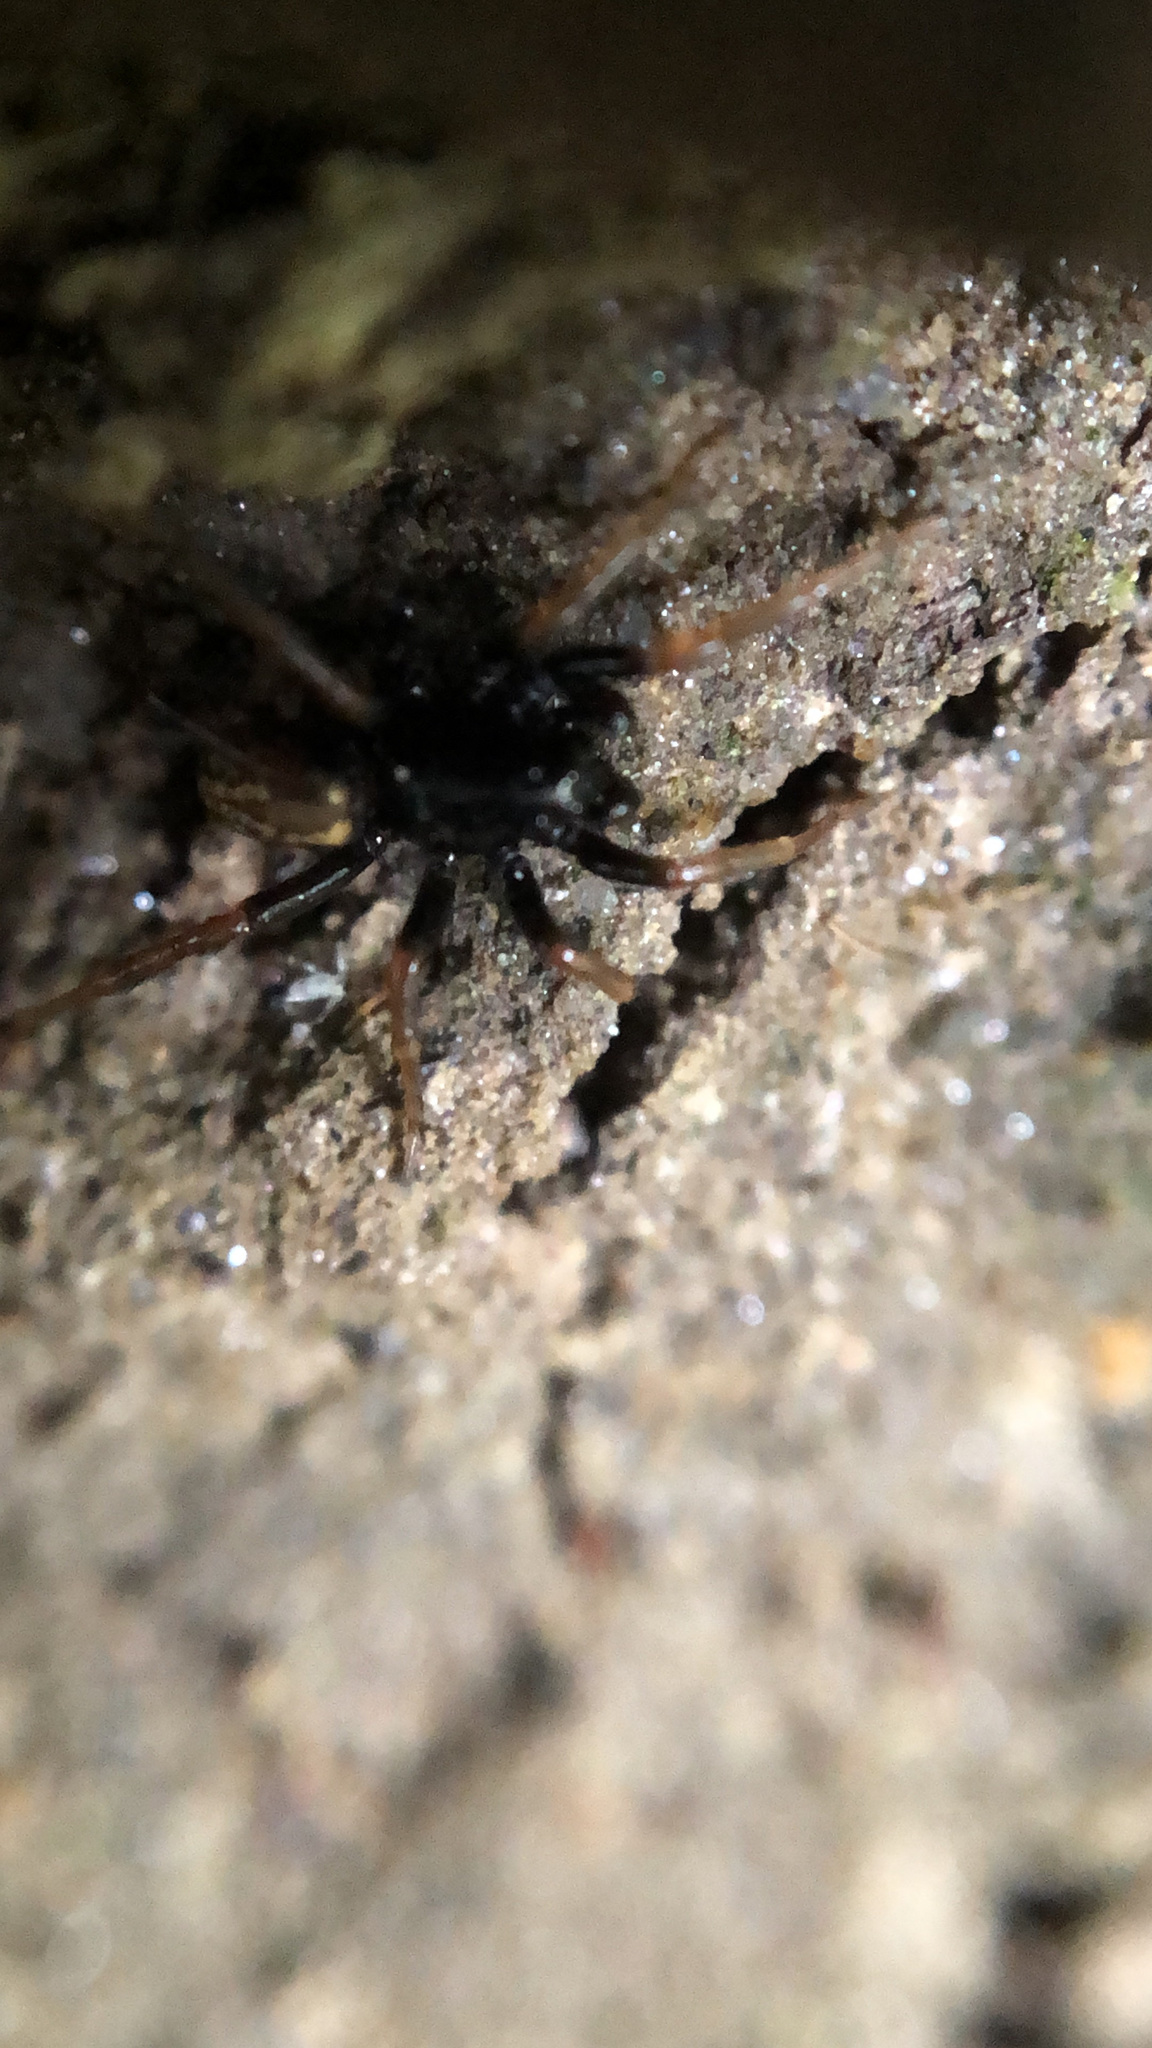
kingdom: Animalia
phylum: Arthropoda
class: Arachnida
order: Araneae
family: Lycosidae
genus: Allocosa
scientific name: Allocosa funerea
